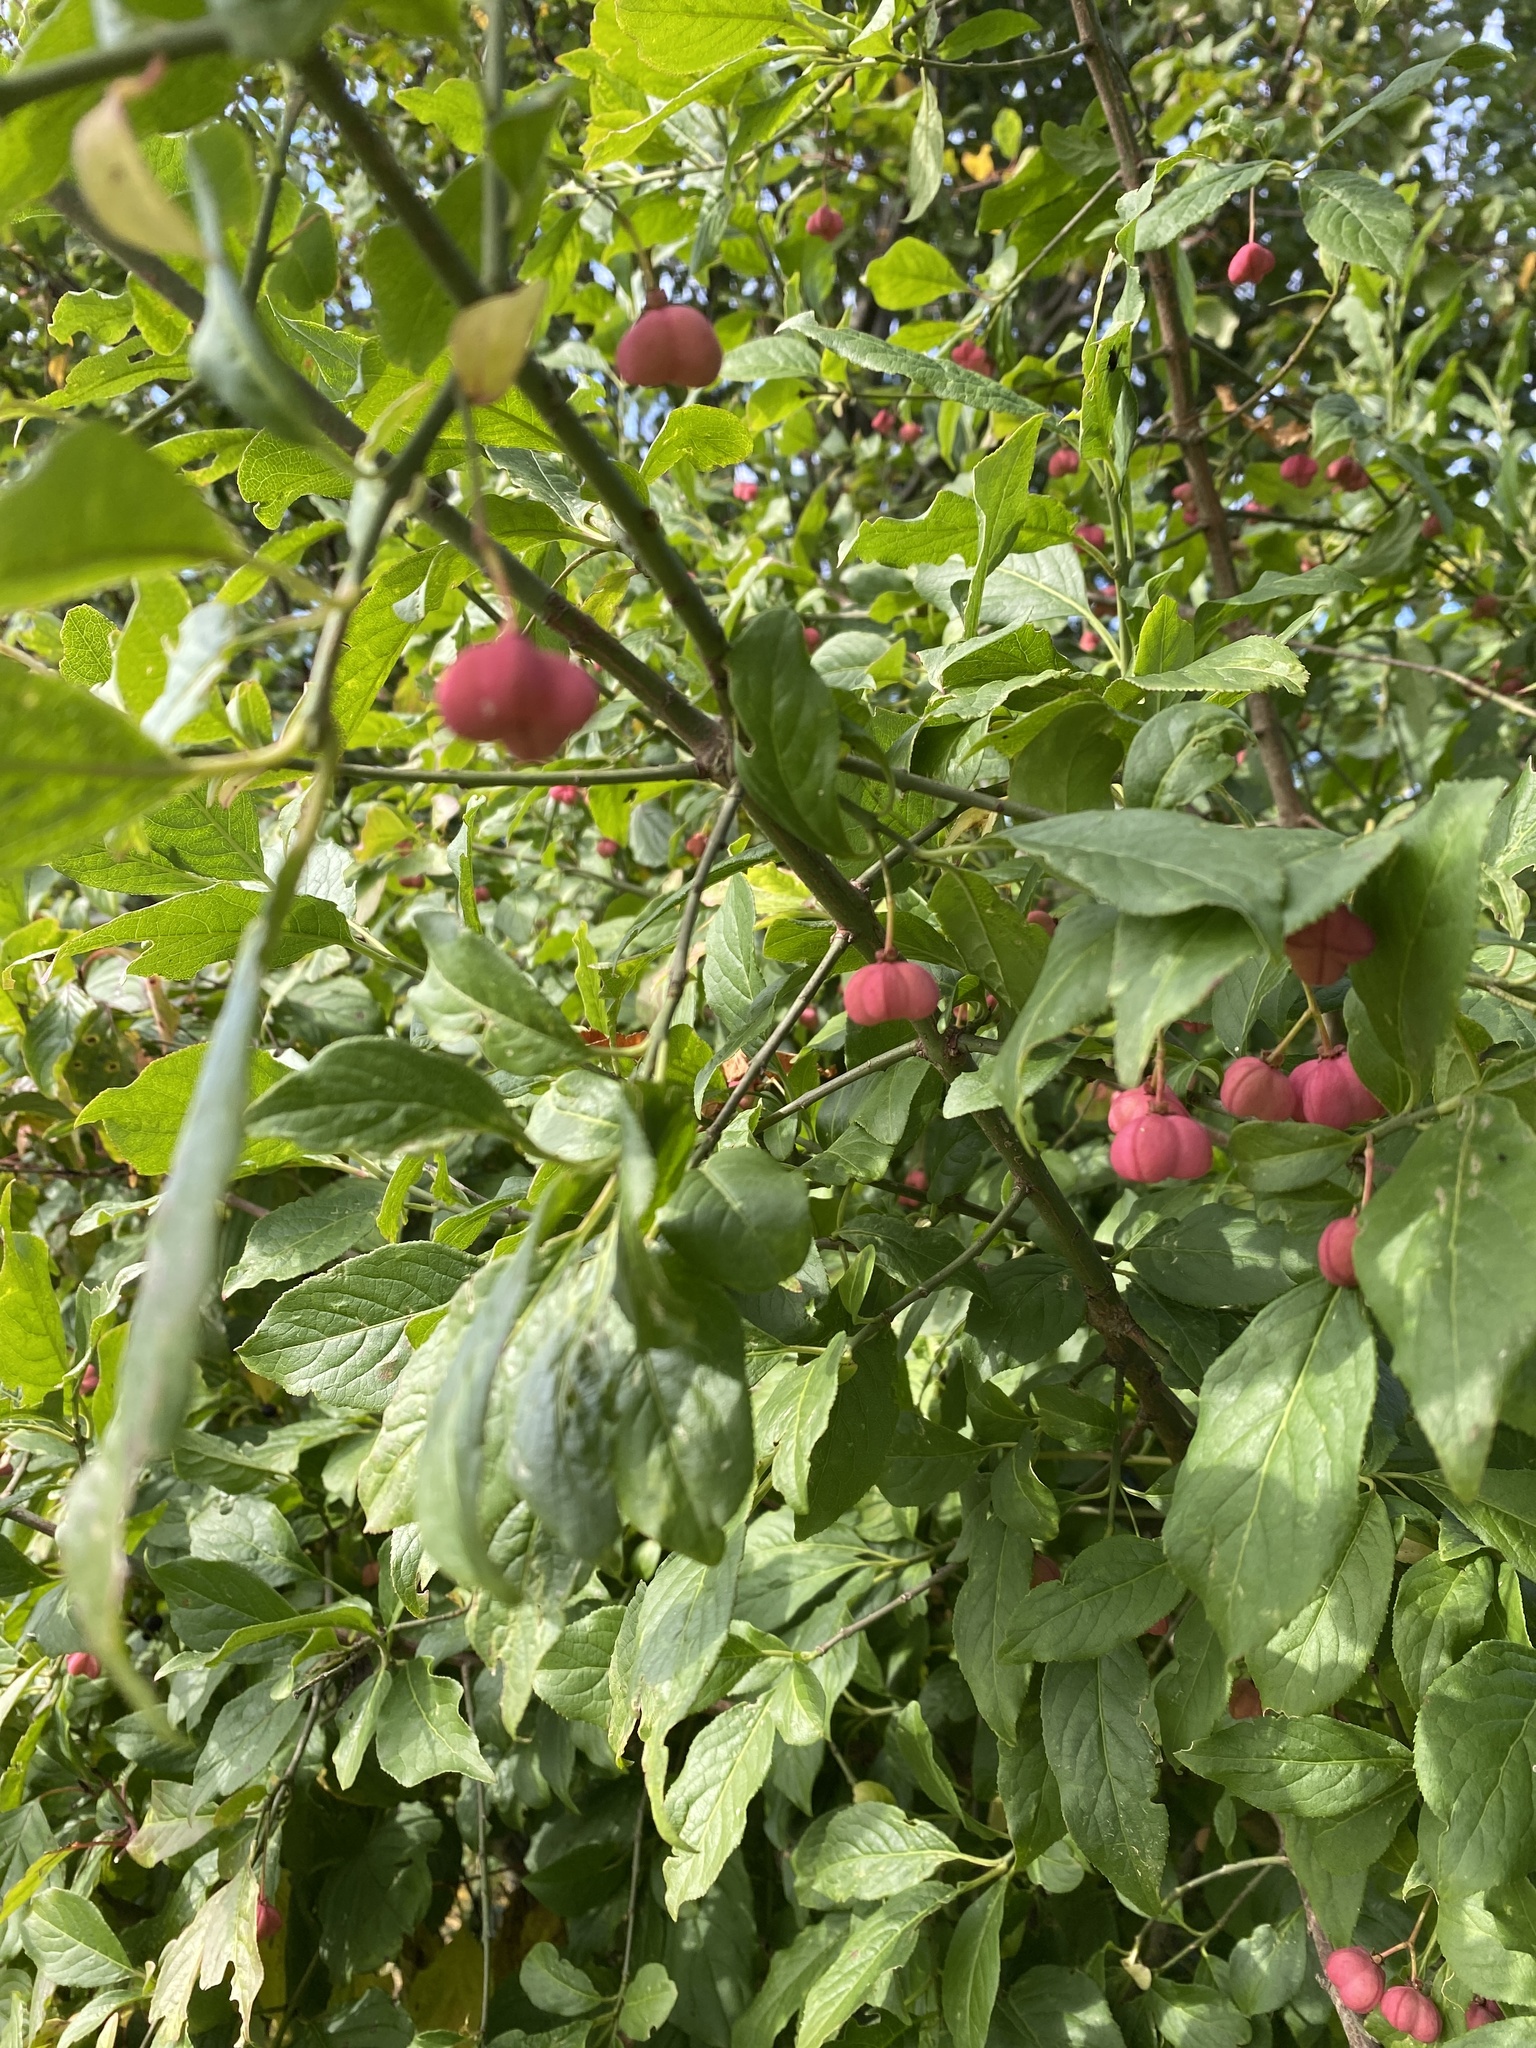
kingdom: Plantae
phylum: Tracheophyta
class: Magnoliopsida
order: Celastrales
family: Celastraceae
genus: Euonymus
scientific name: Euonymus europaeus
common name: Spindle
